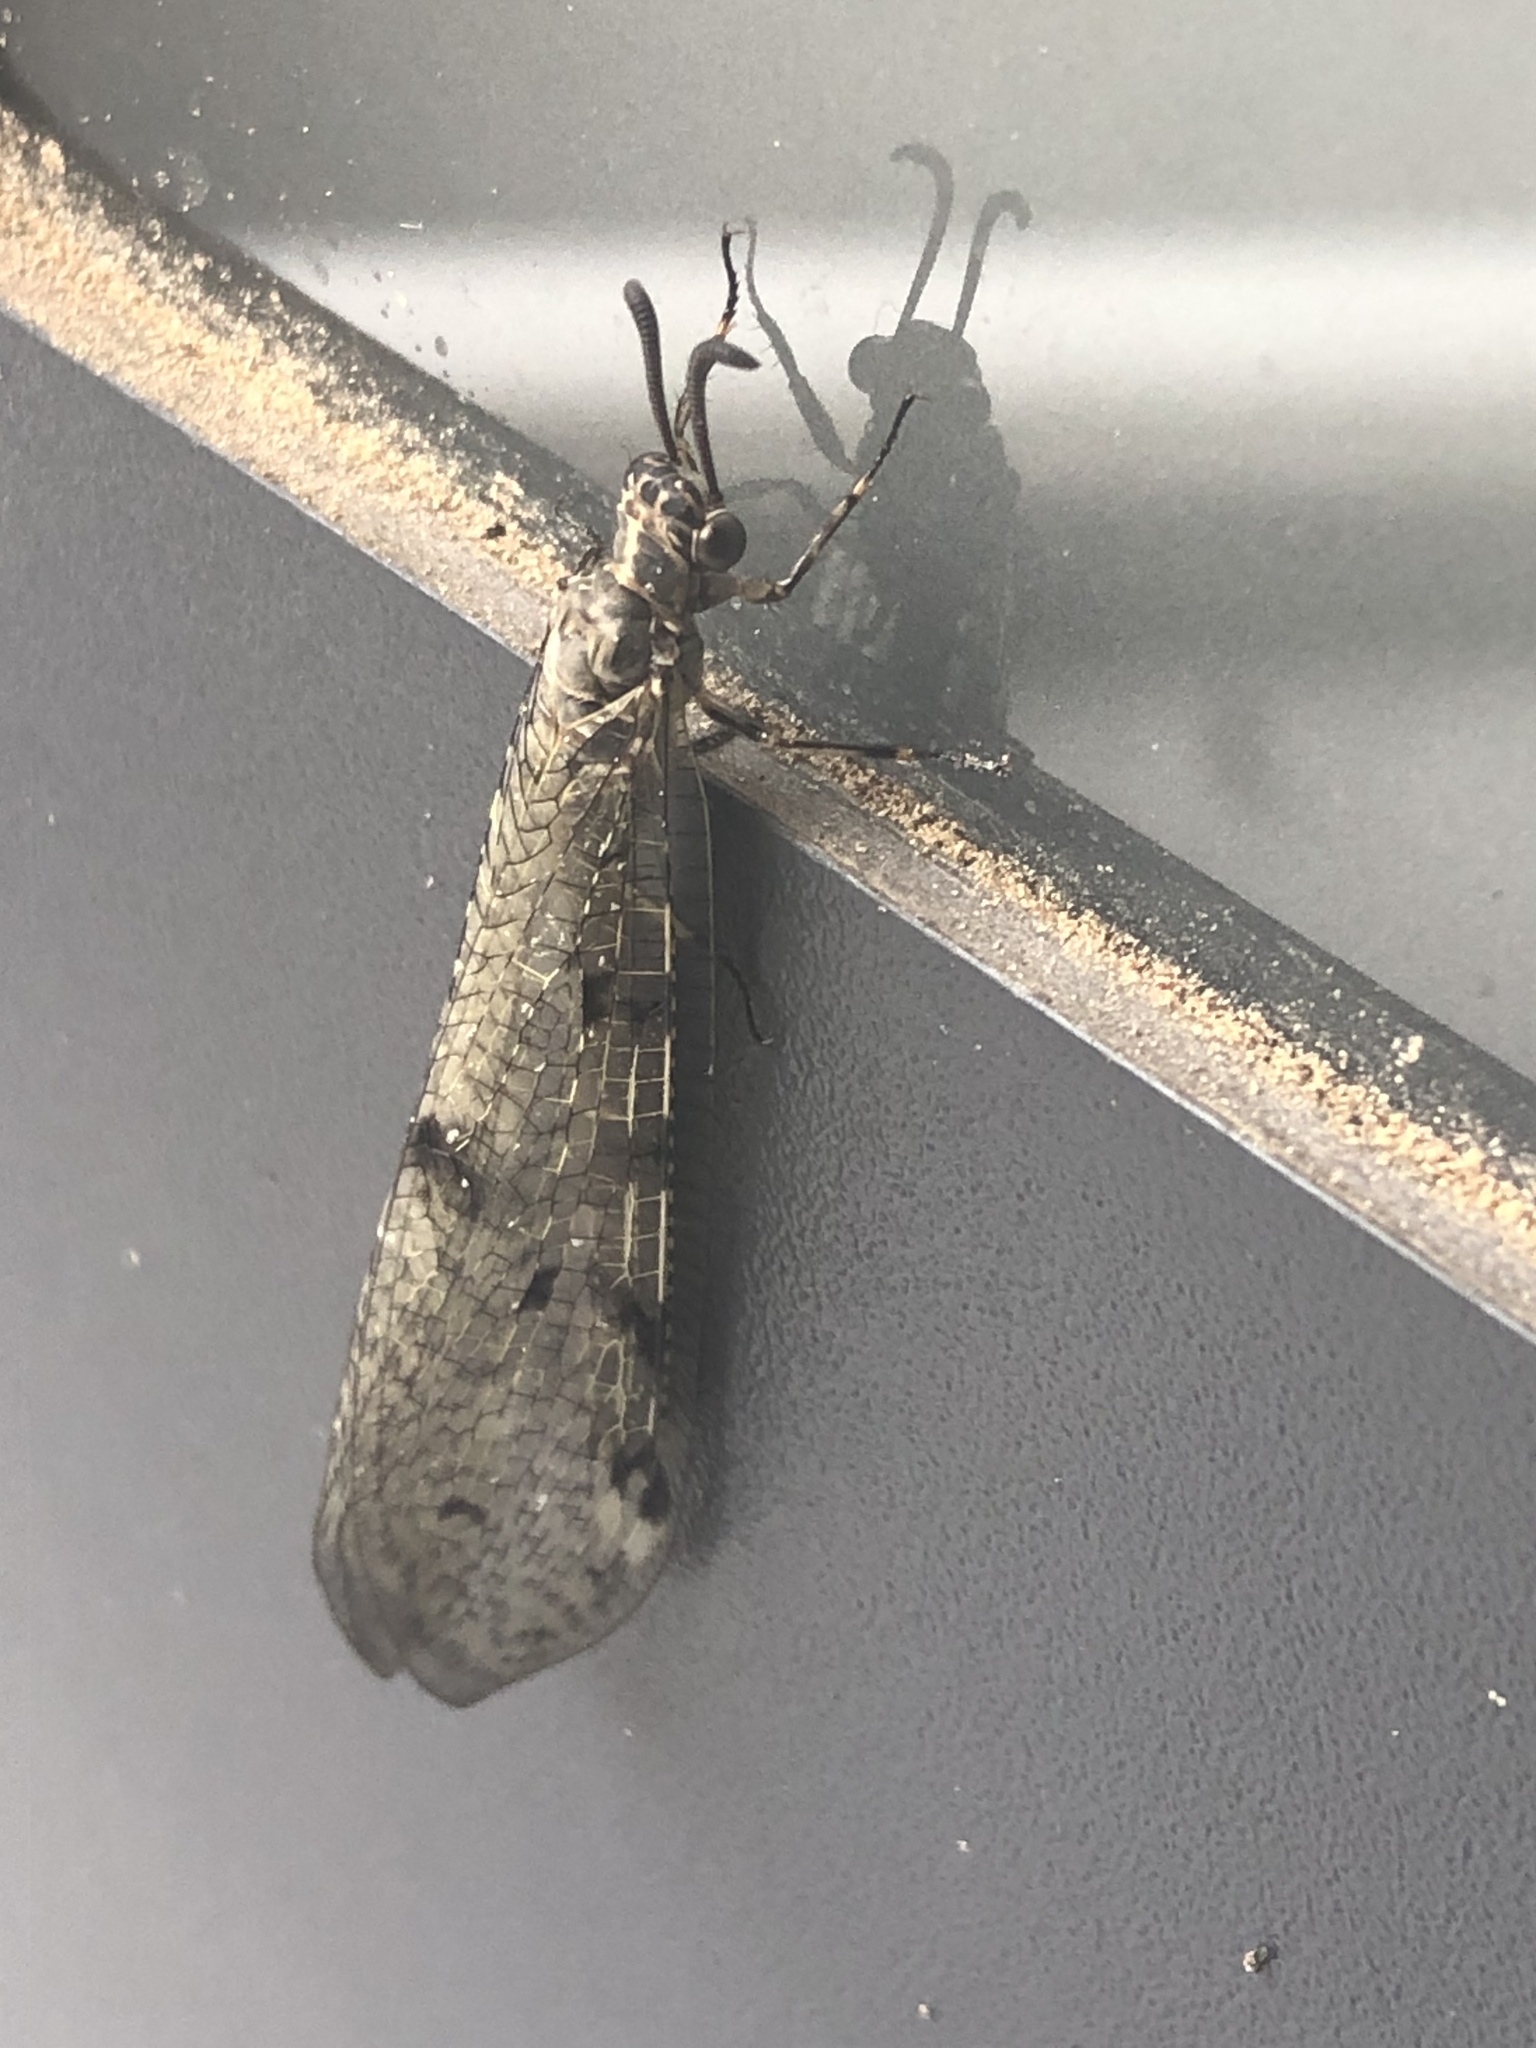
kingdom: Animalia
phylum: Arthropoda
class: Insecta
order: Neuroptera
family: Myrmeleontidae
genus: Euroleon
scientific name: Euroleon nostras
